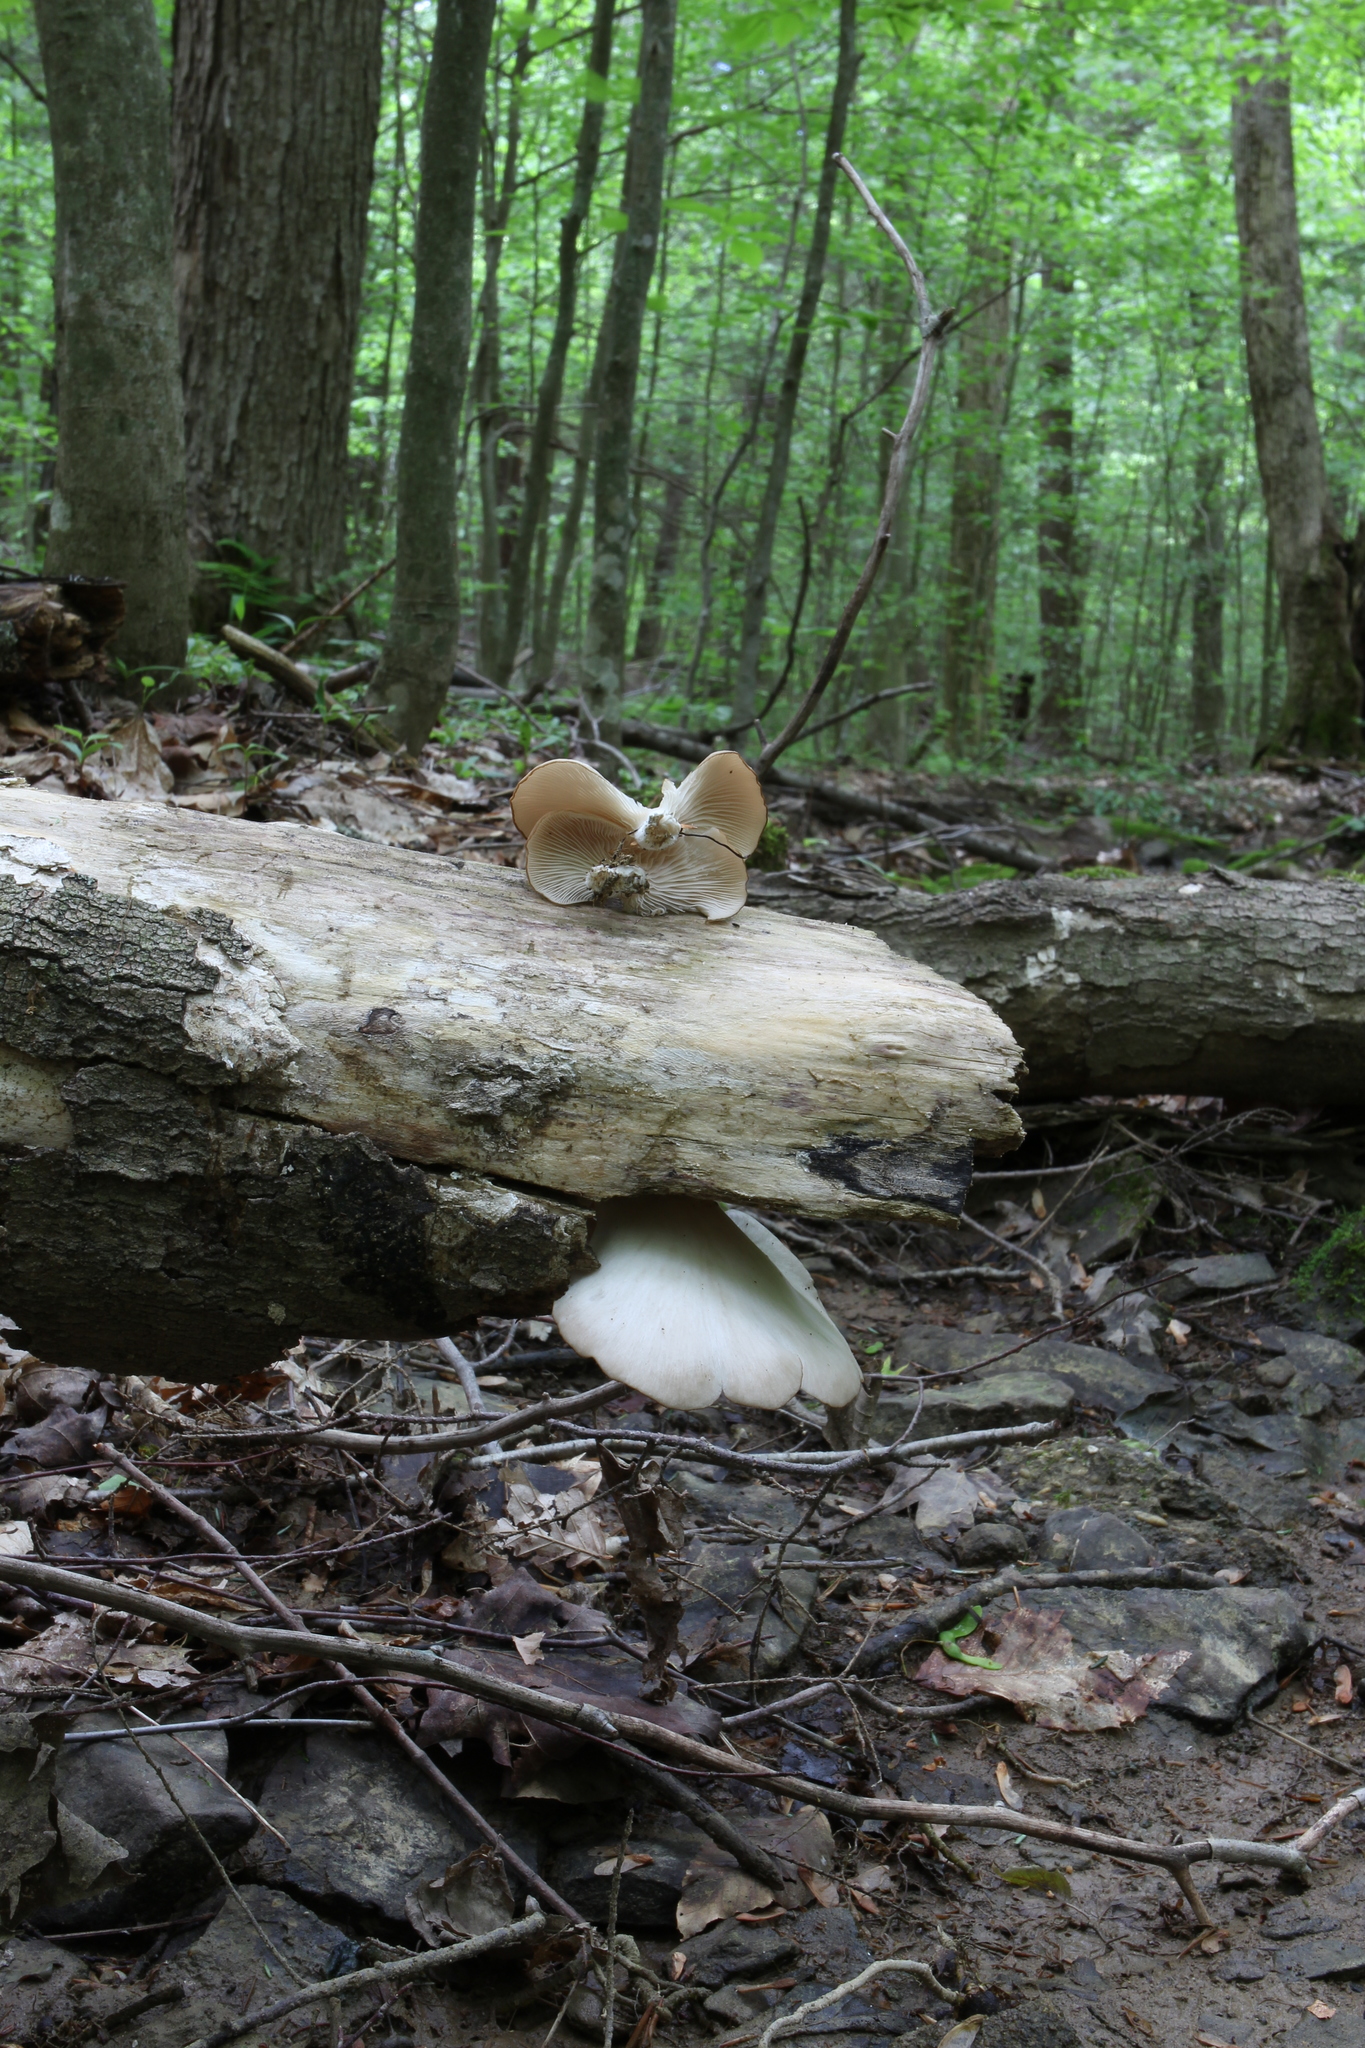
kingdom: Fungi
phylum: Basidiomycota
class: Agaricomycetes
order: Agaricales
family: Pleurotaceae
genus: Pleurotus
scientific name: Pleurotus pulmonarius
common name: Pale oyster
